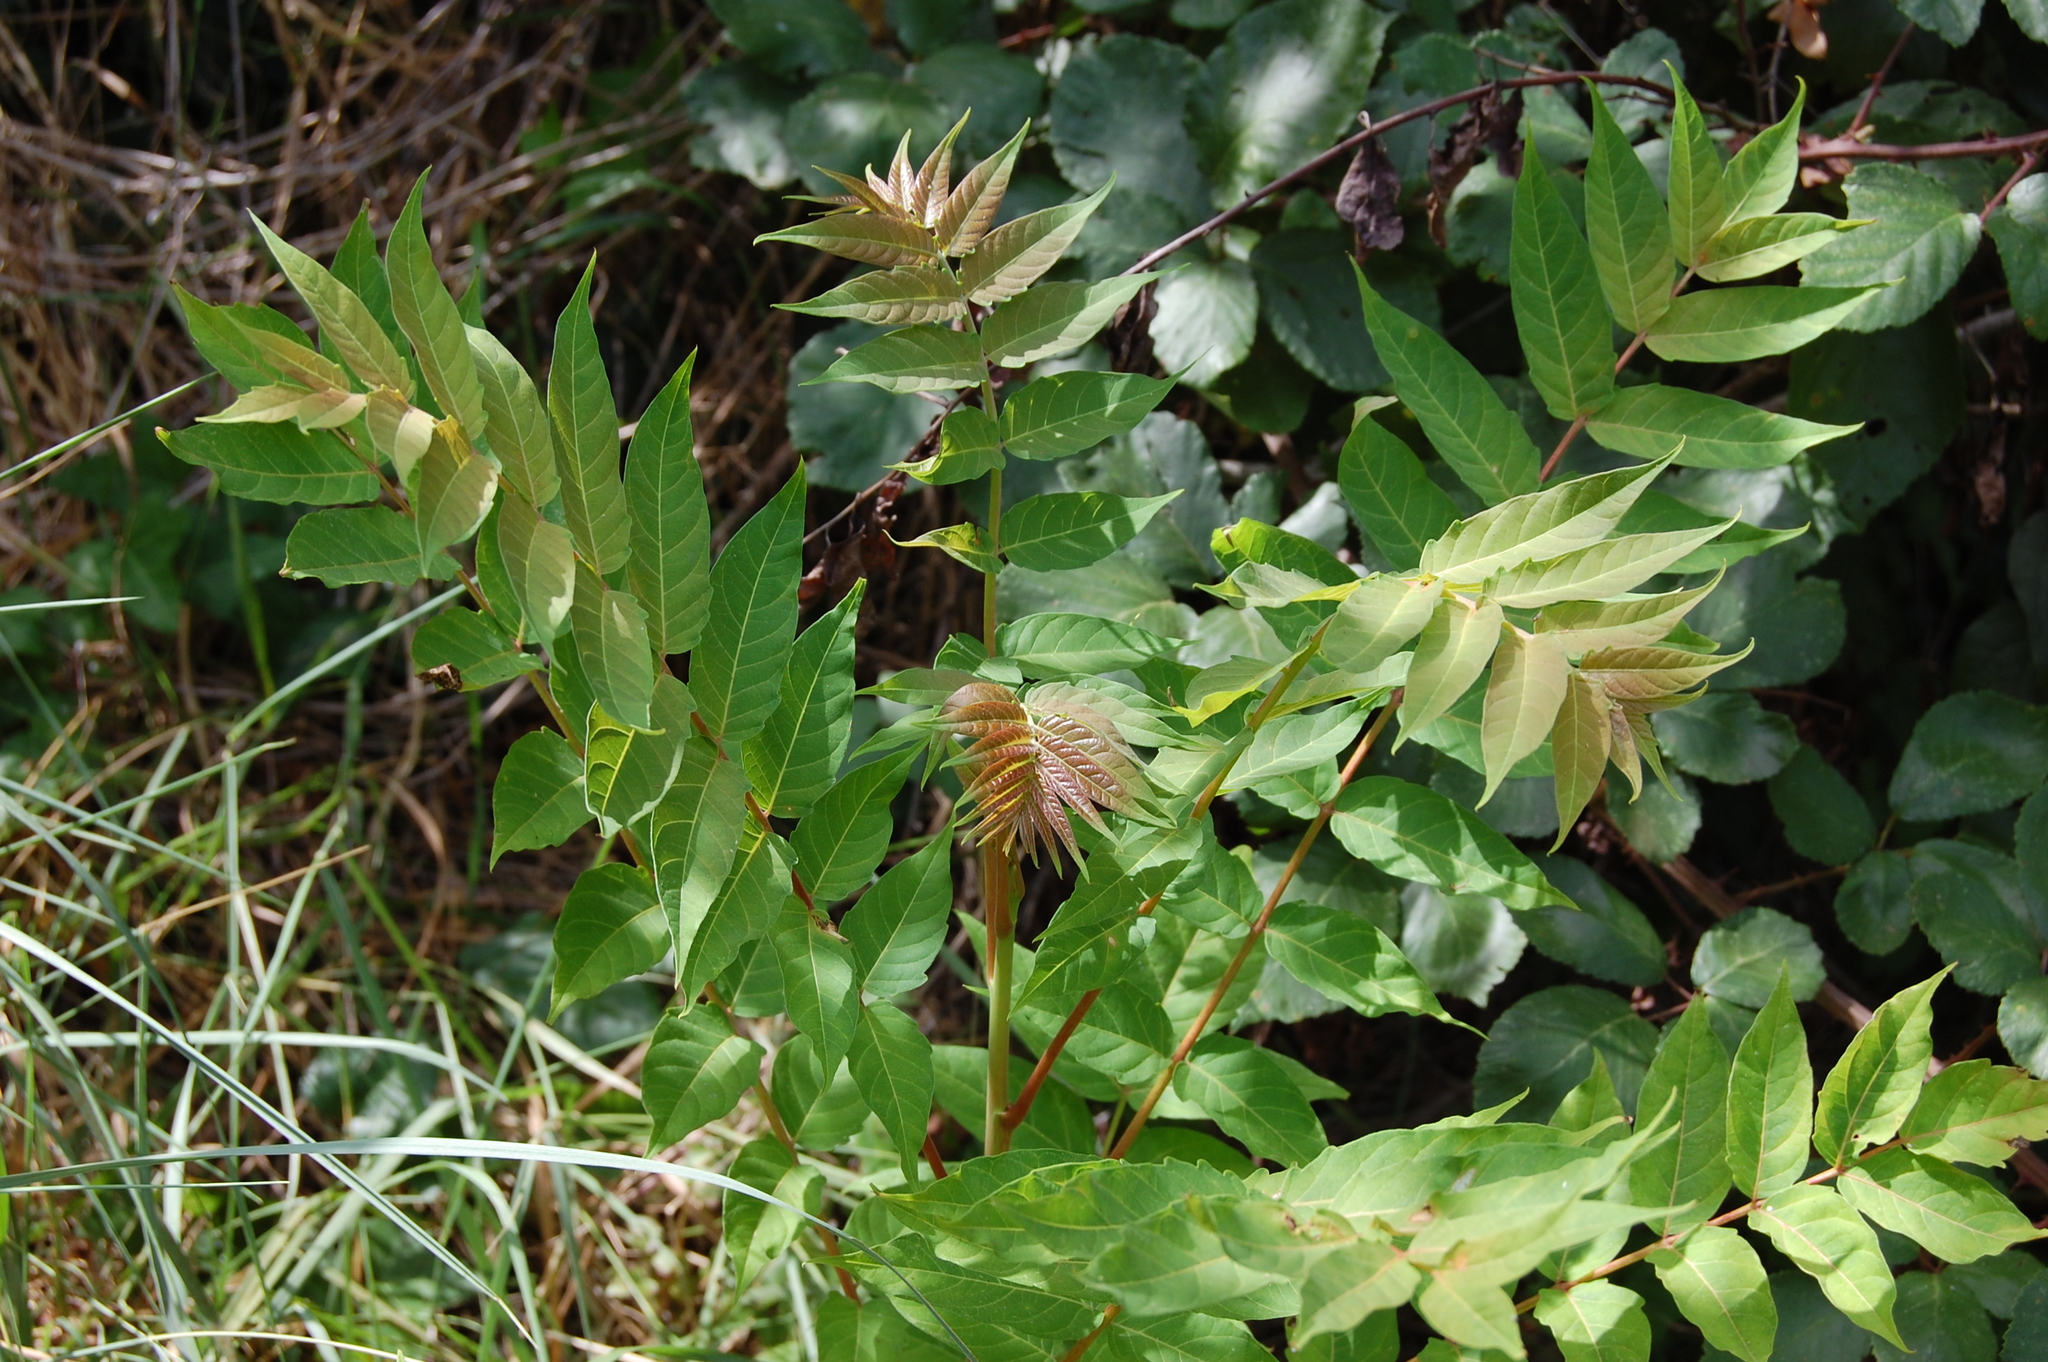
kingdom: Plantae
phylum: Tracheophyta
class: Magnoliopsida
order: Sapindales
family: Simaroubaceae
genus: Ailanthus
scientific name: Ailanthus altissima
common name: Tree-of-heaven
